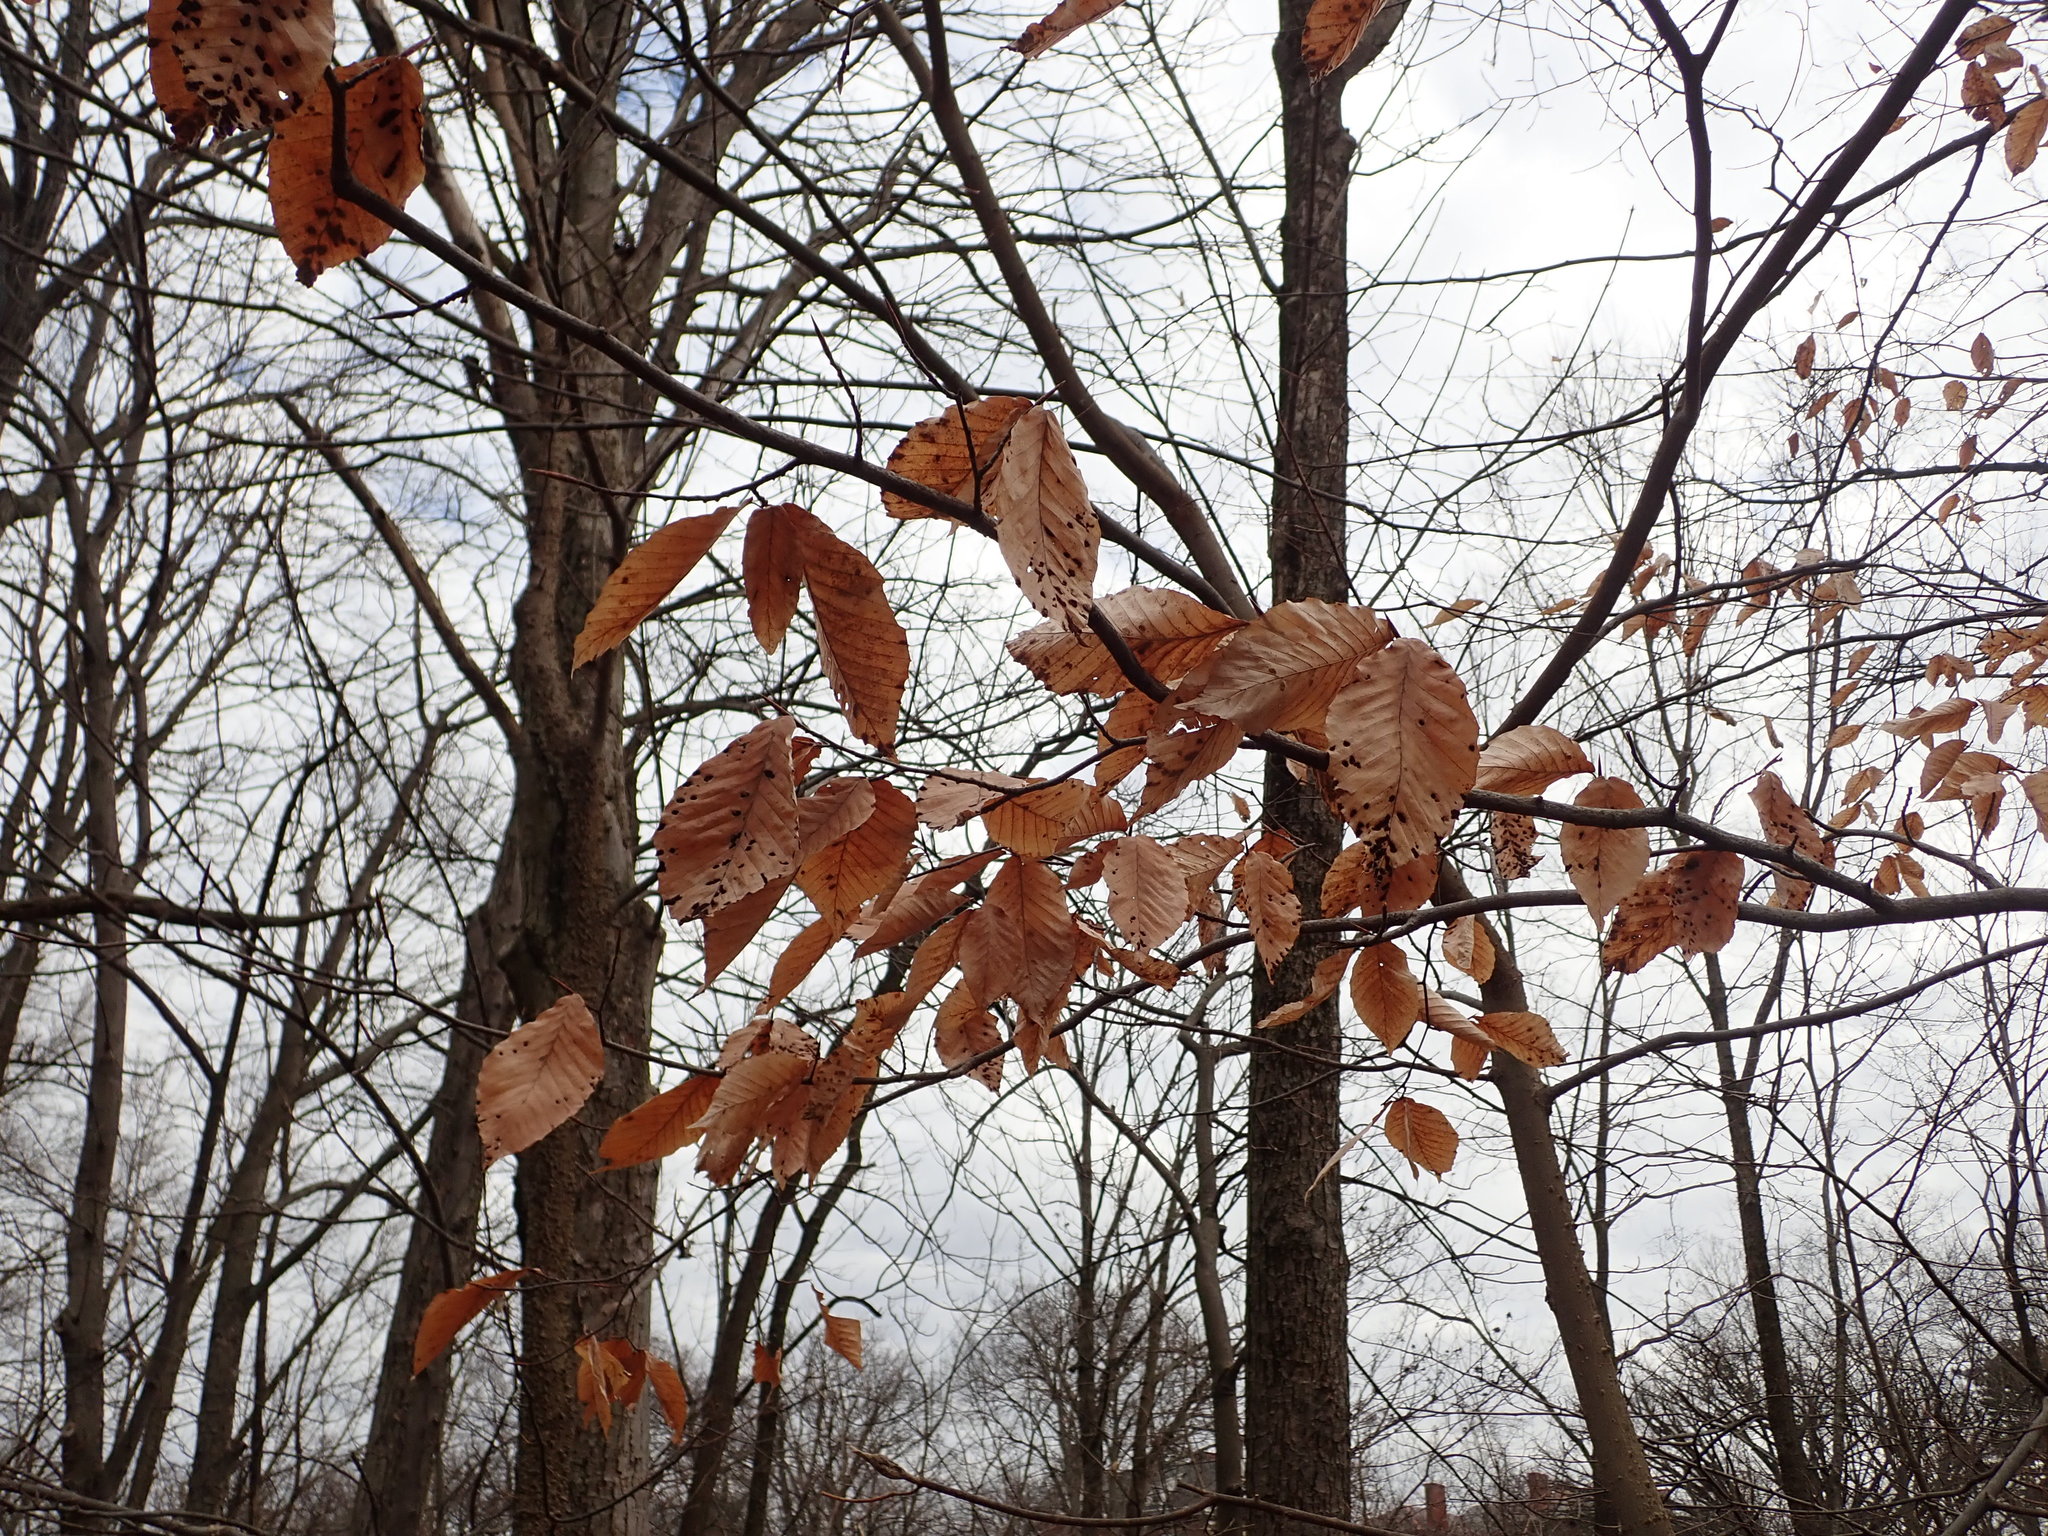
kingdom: Plantae
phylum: Tracheophyta
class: Magnoliopsida
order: Fagales
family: Fagaceae
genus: Fagus
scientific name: Fagus grandifolia
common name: American beech
